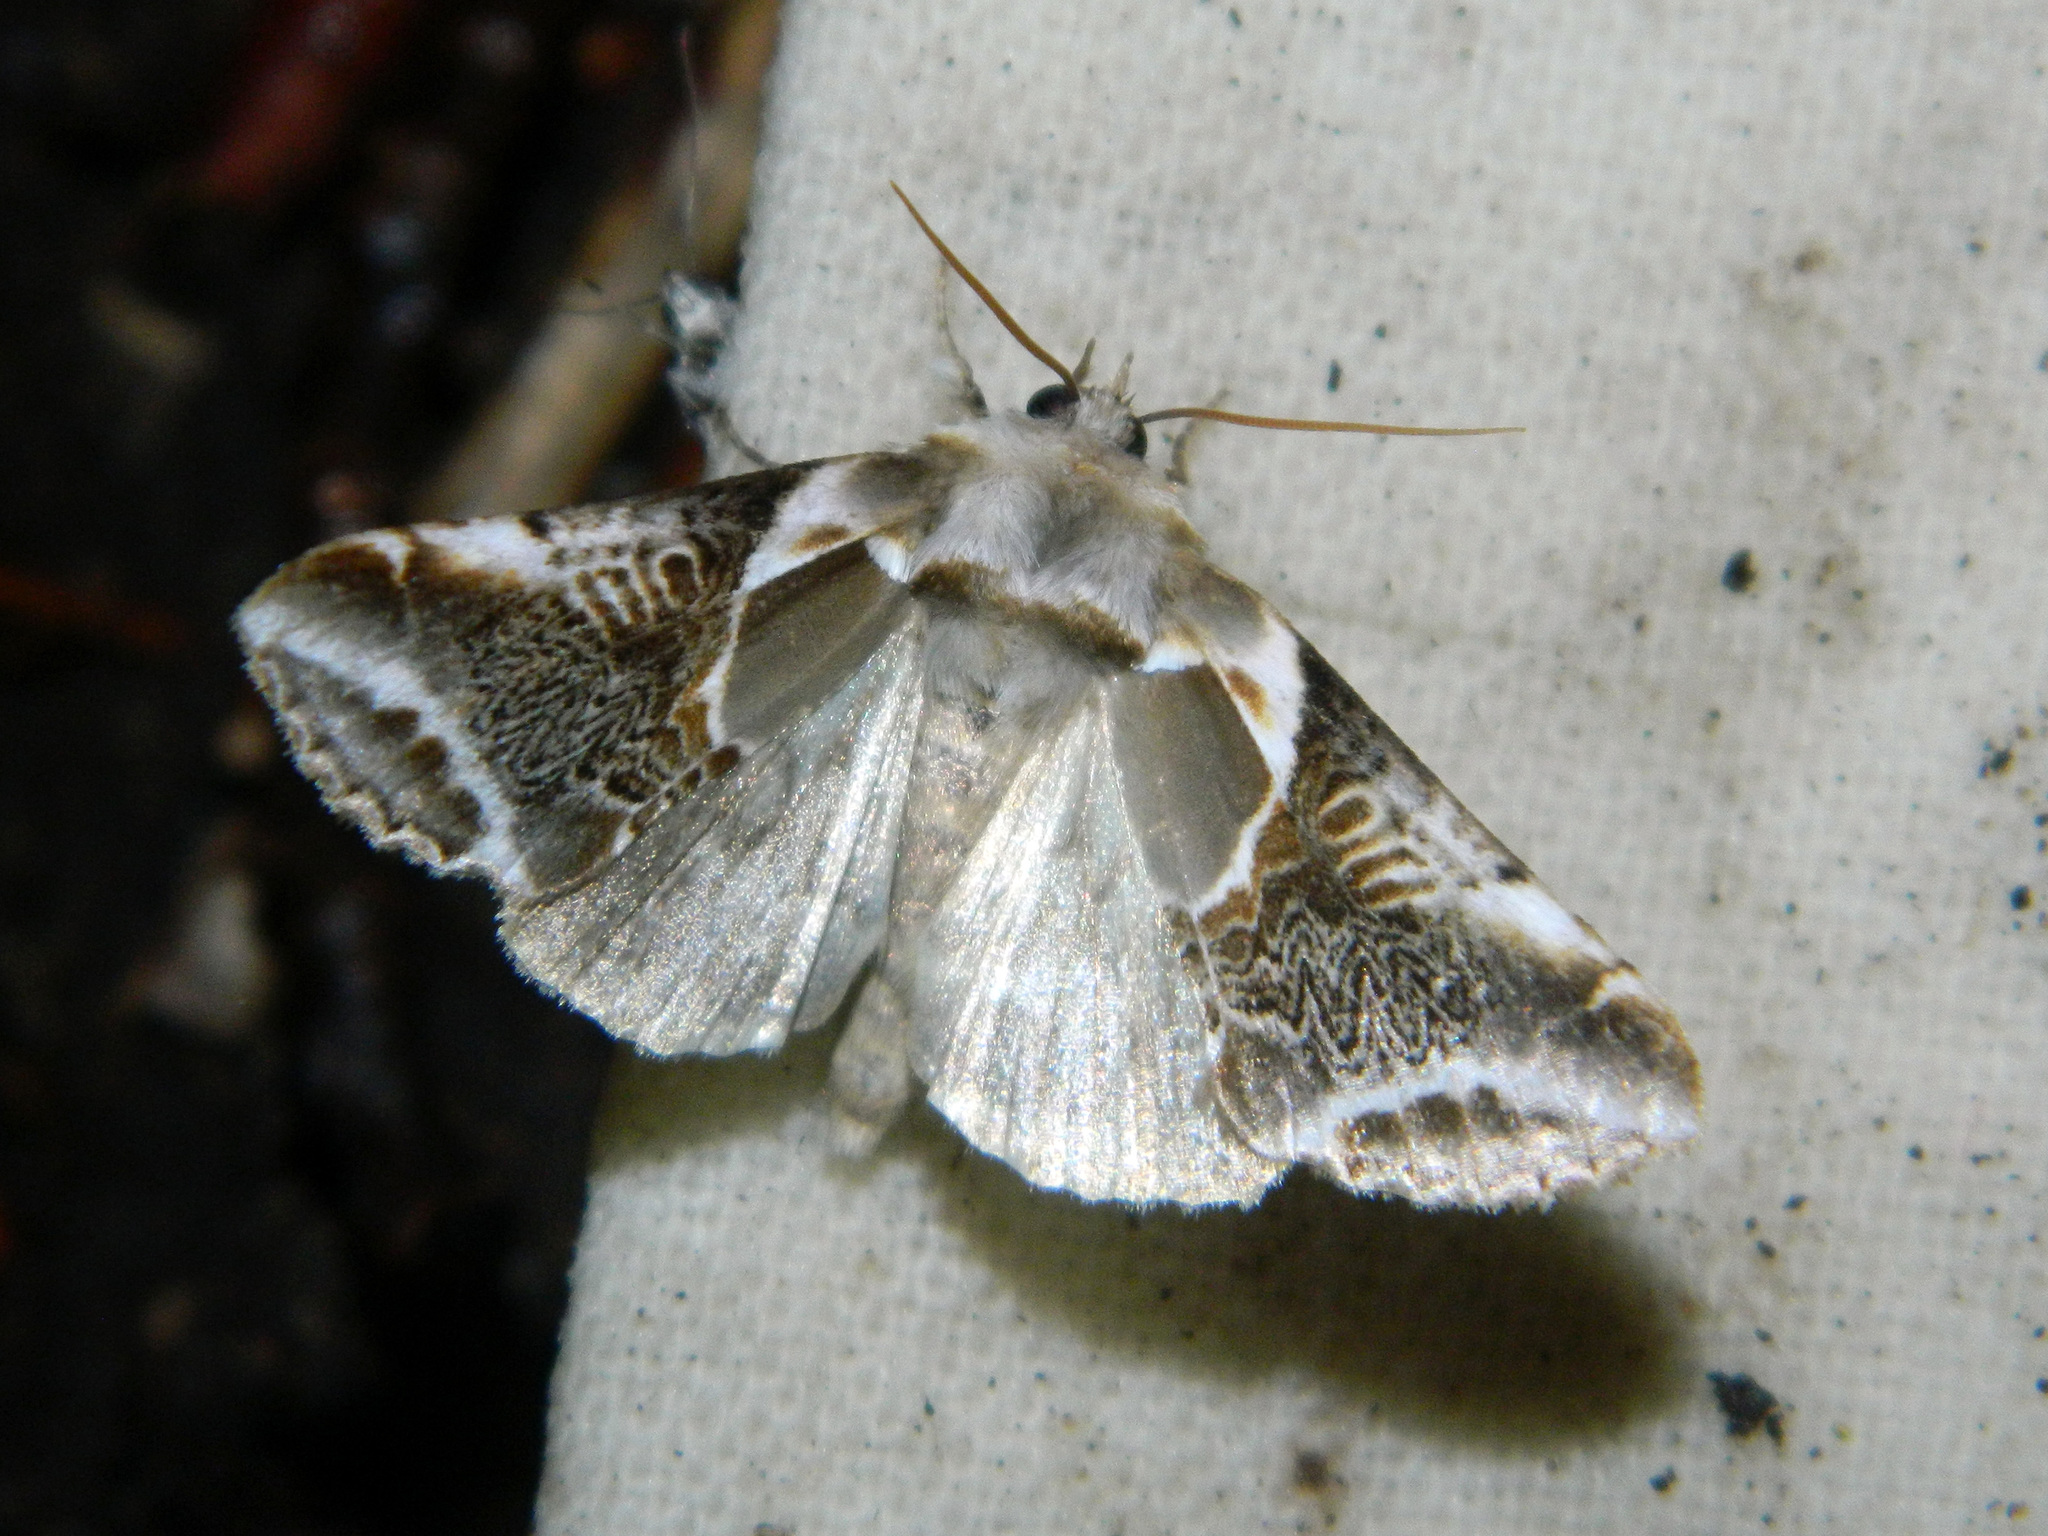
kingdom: Animalia
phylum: Arthropoda
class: Insecta
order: Lepidoptera
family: Drepanidae
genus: Habrosyne
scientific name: Habrosyne scripta
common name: Lettered habrosyne moth
